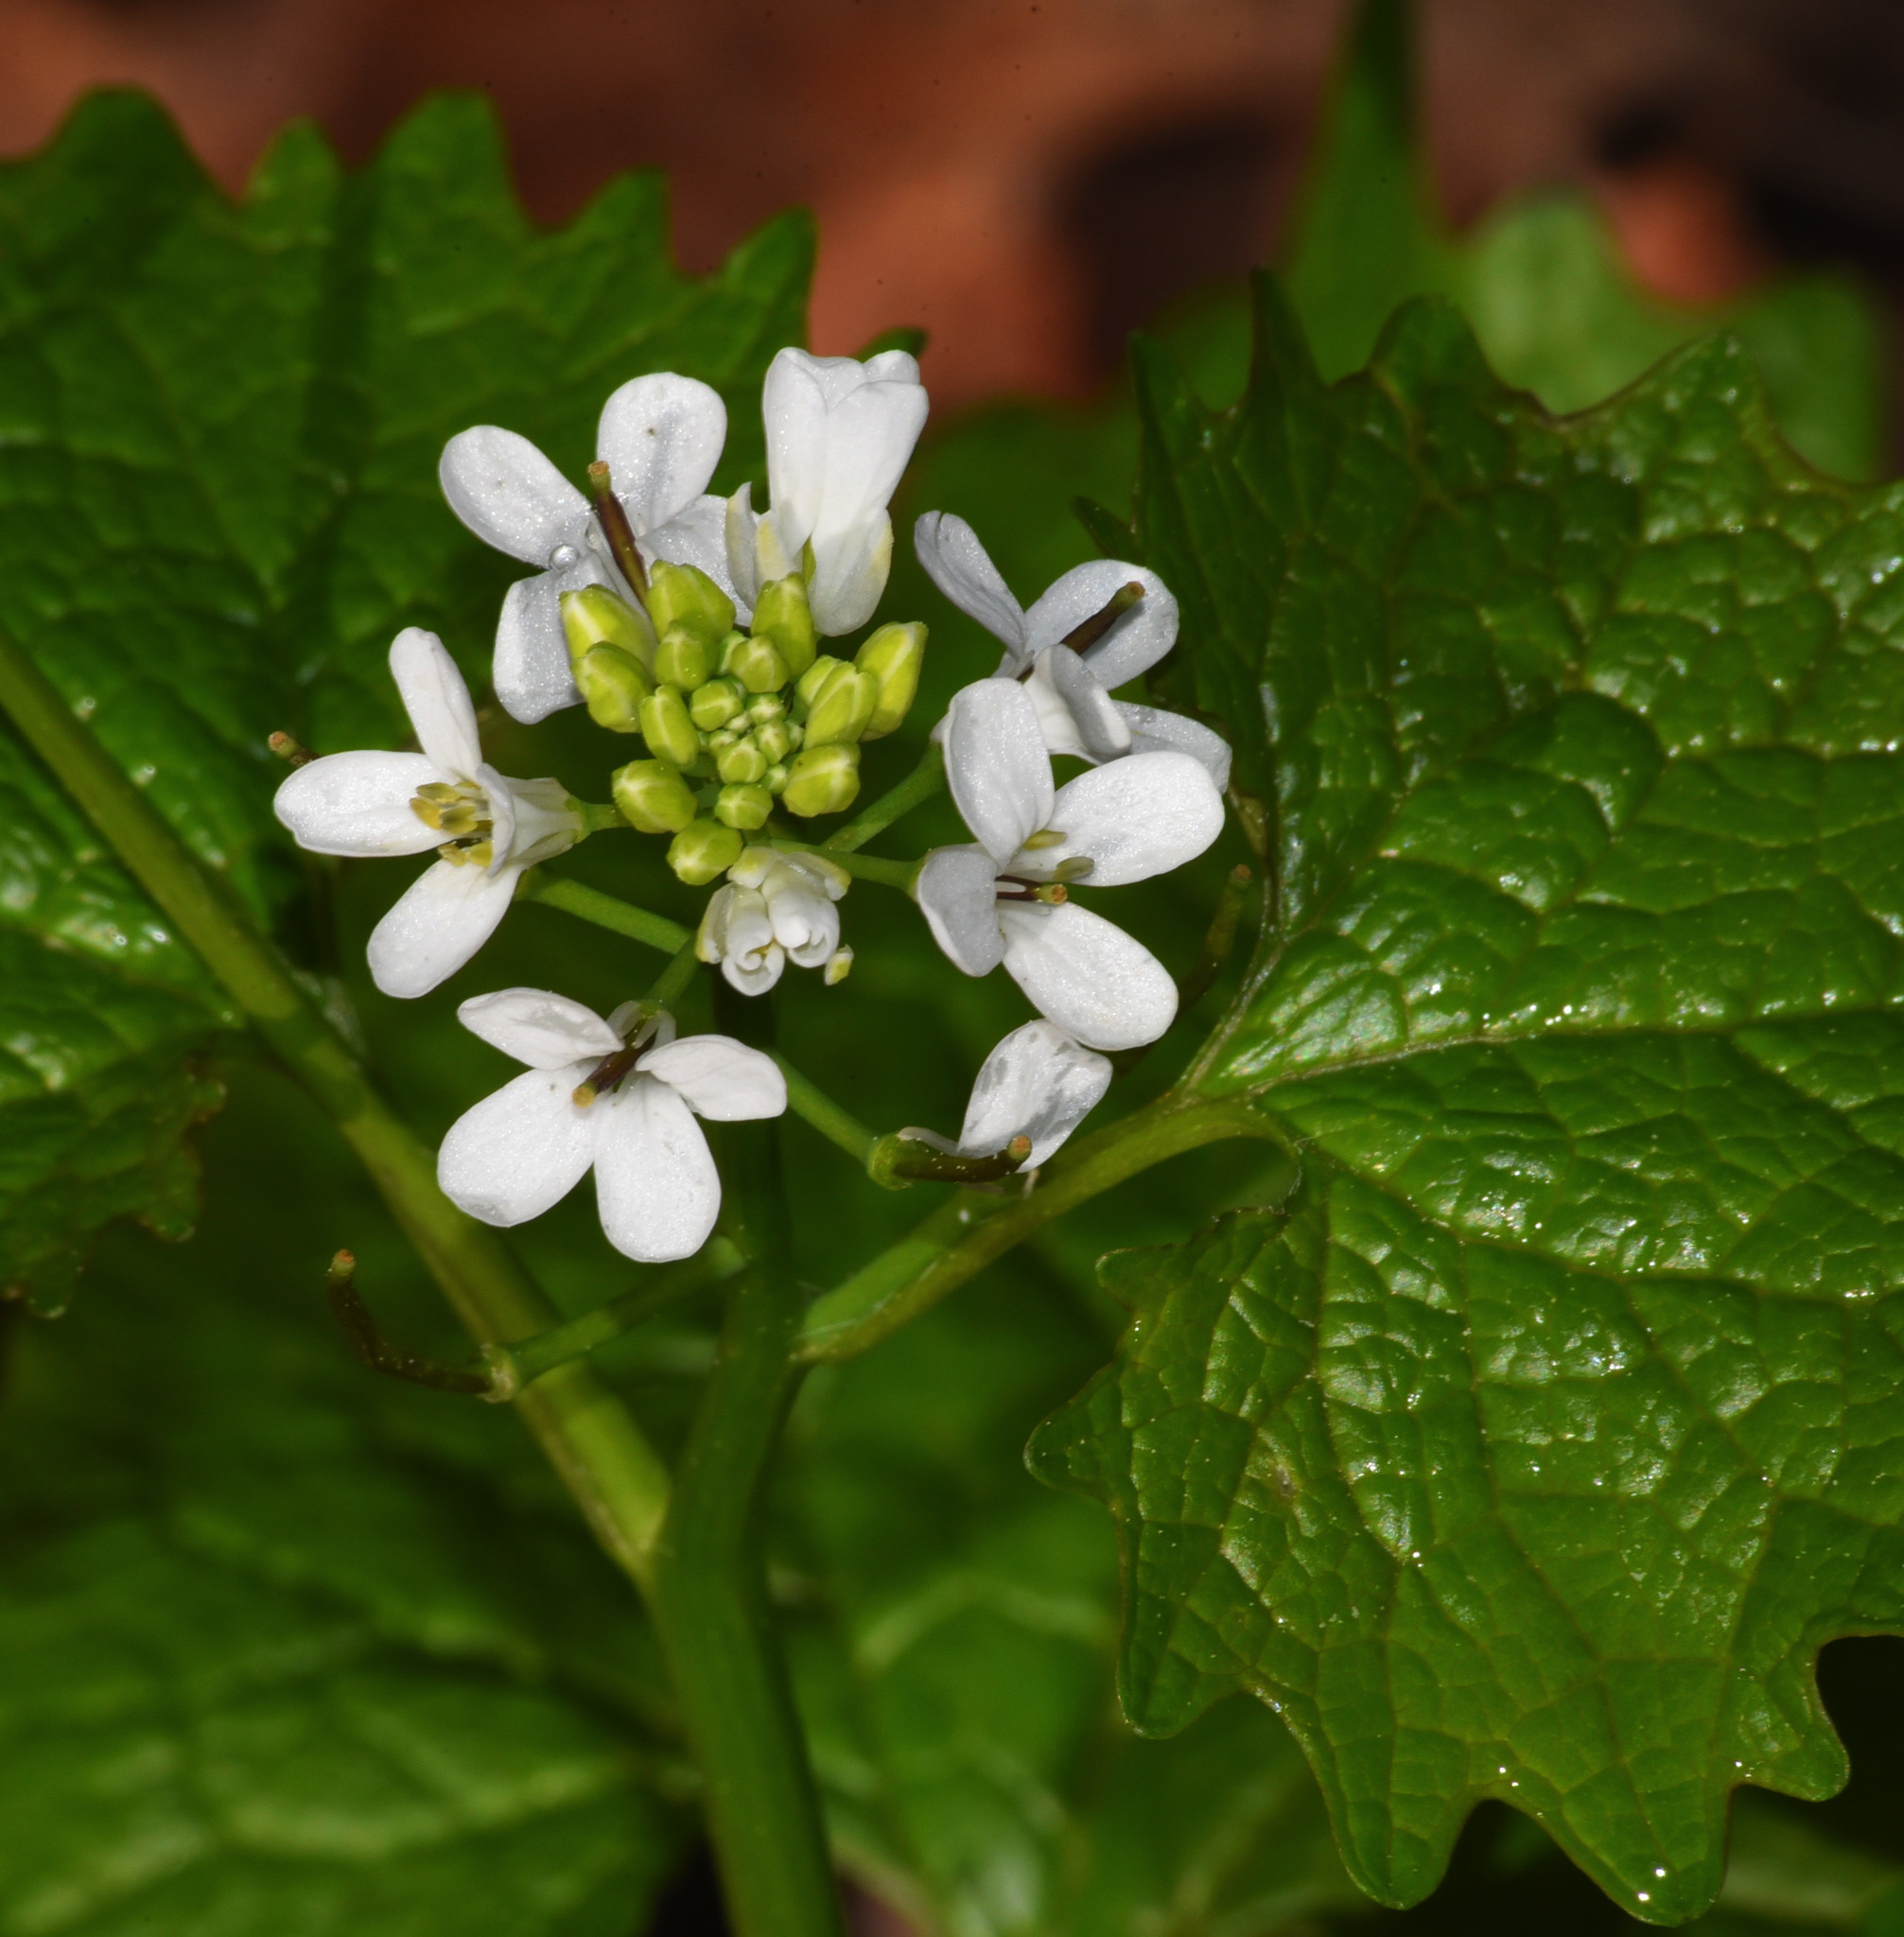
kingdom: Plantae
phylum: Tracheophyta
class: Magnoliopsida
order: Brassicales
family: Brassicaceae
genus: Alliaria
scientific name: Alliaria petiolata
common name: Garlic mustard
